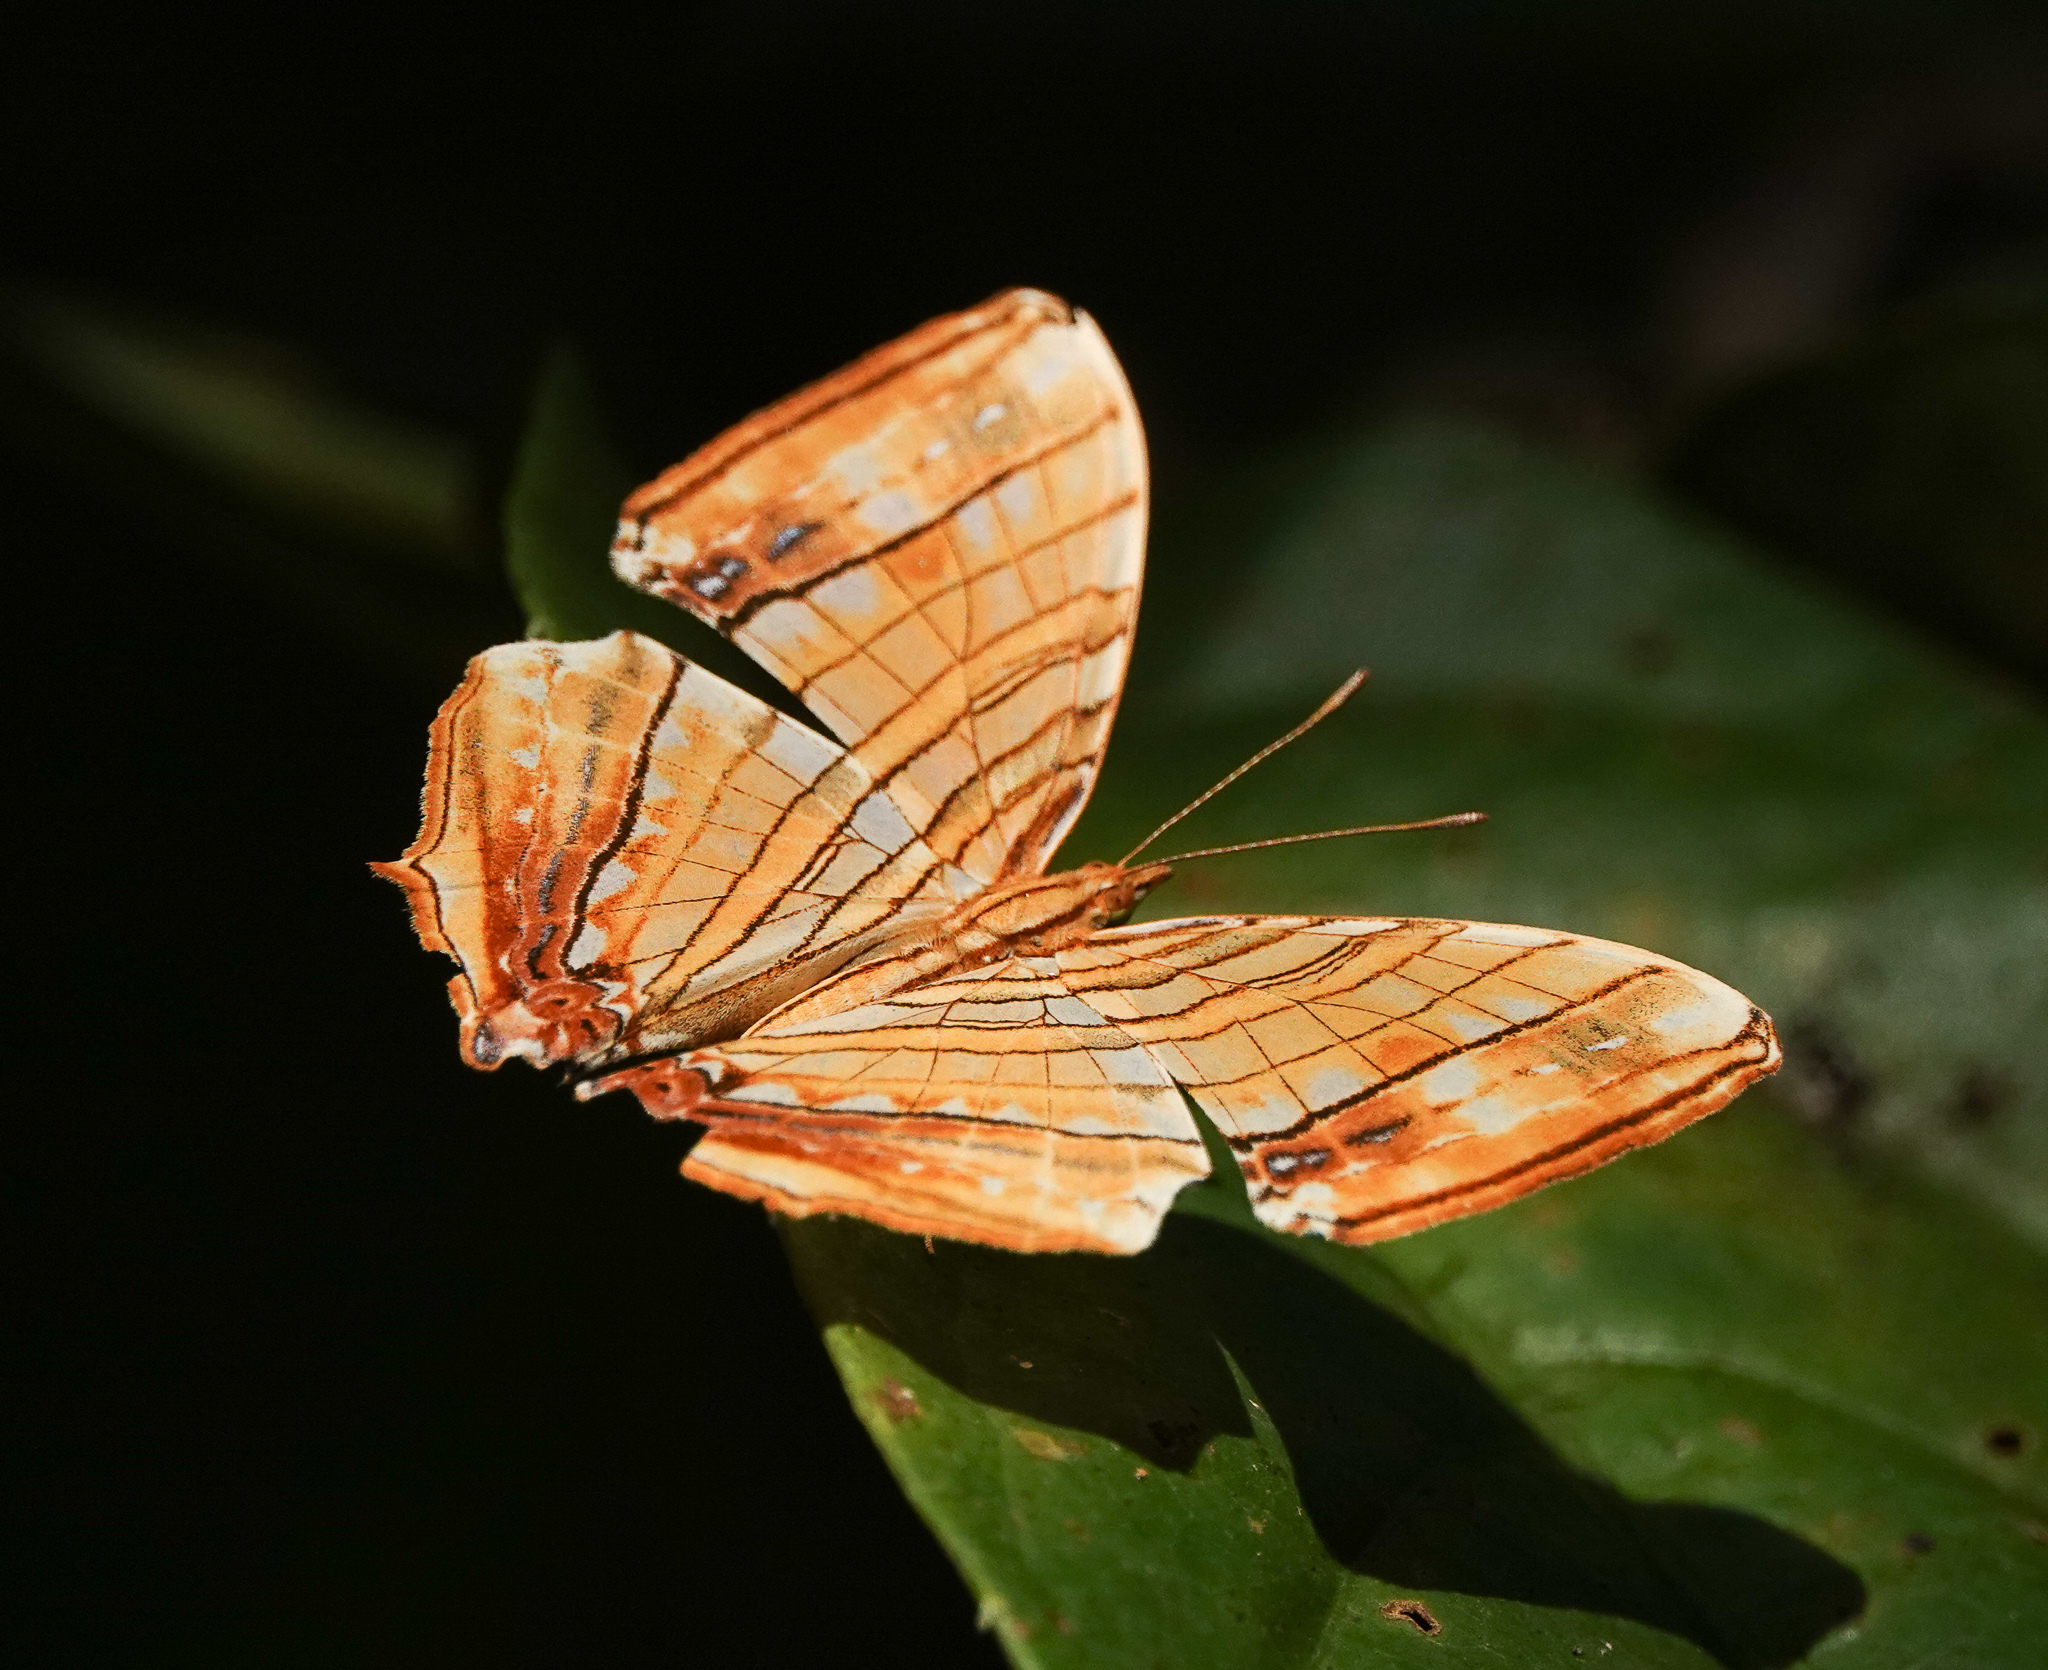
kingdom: Animalia
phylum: Arthropoda
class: Insecta
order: Lepidoptera
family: Nymphalidae
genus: Chersonesia
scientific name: Chersonesia risa
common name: Common maplet
